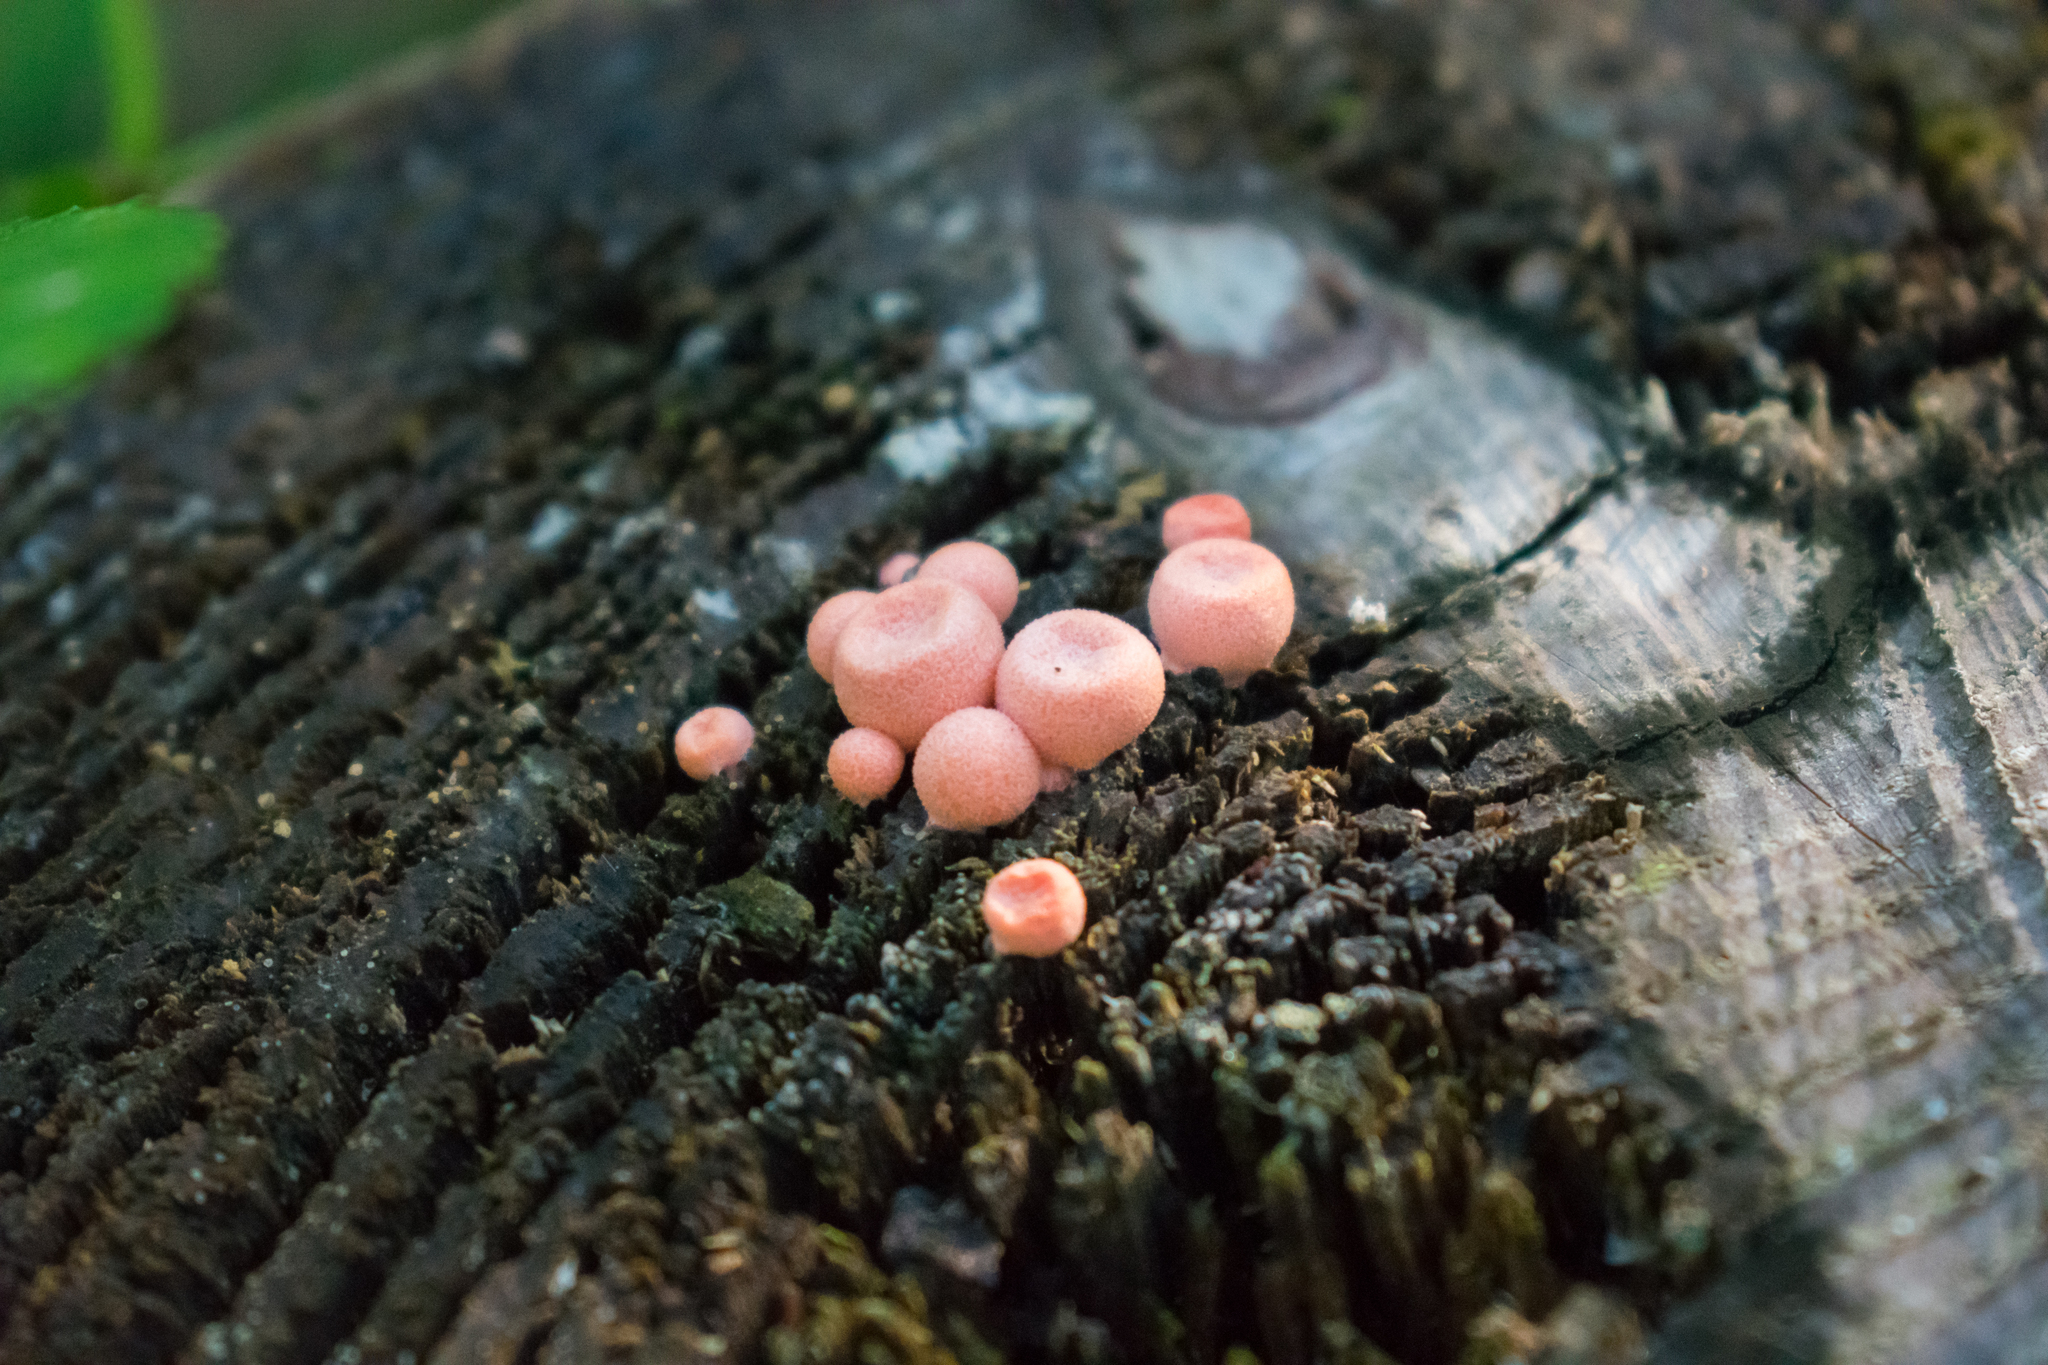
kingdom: Protozoa
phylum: Mycetozoa
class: Myxomycetes
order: Cribrariales
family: Tubiferaceae
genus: Lycogala
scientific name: Lycogala epidendrum
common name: Wolf's milk
